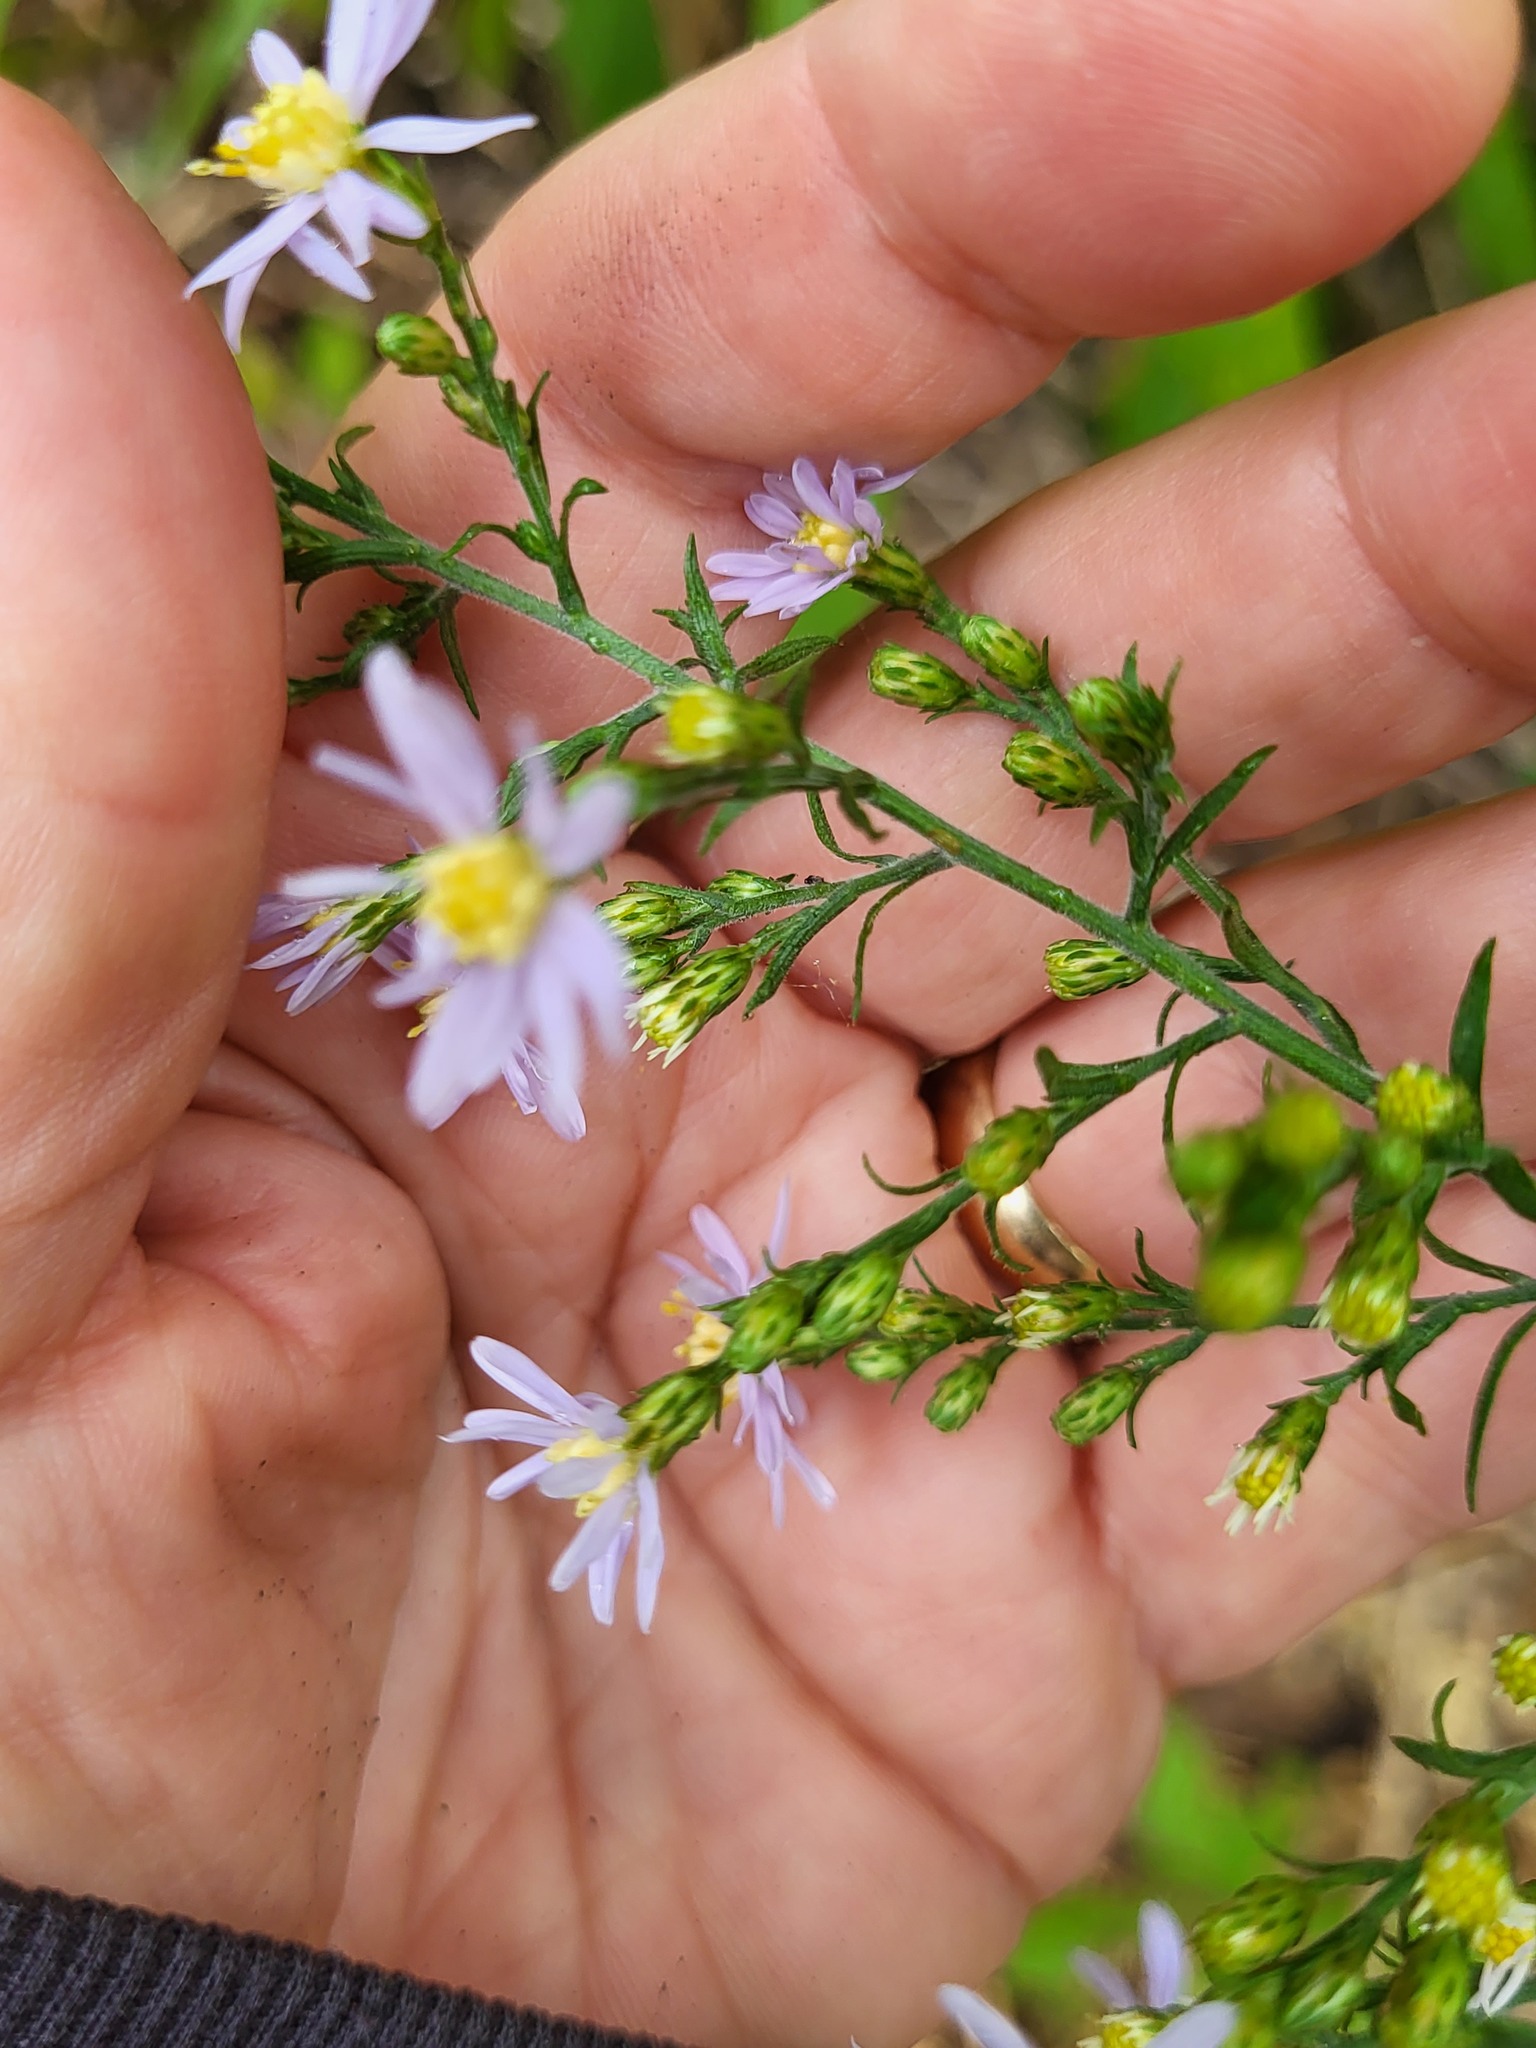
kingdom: Plantae
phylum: Tracheophyta
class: Magnoliopsida
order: Asterales
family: Asteraceae
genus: Symphyotrichum
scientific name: Symphyotrichum drummondii
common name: Drummond's aster
